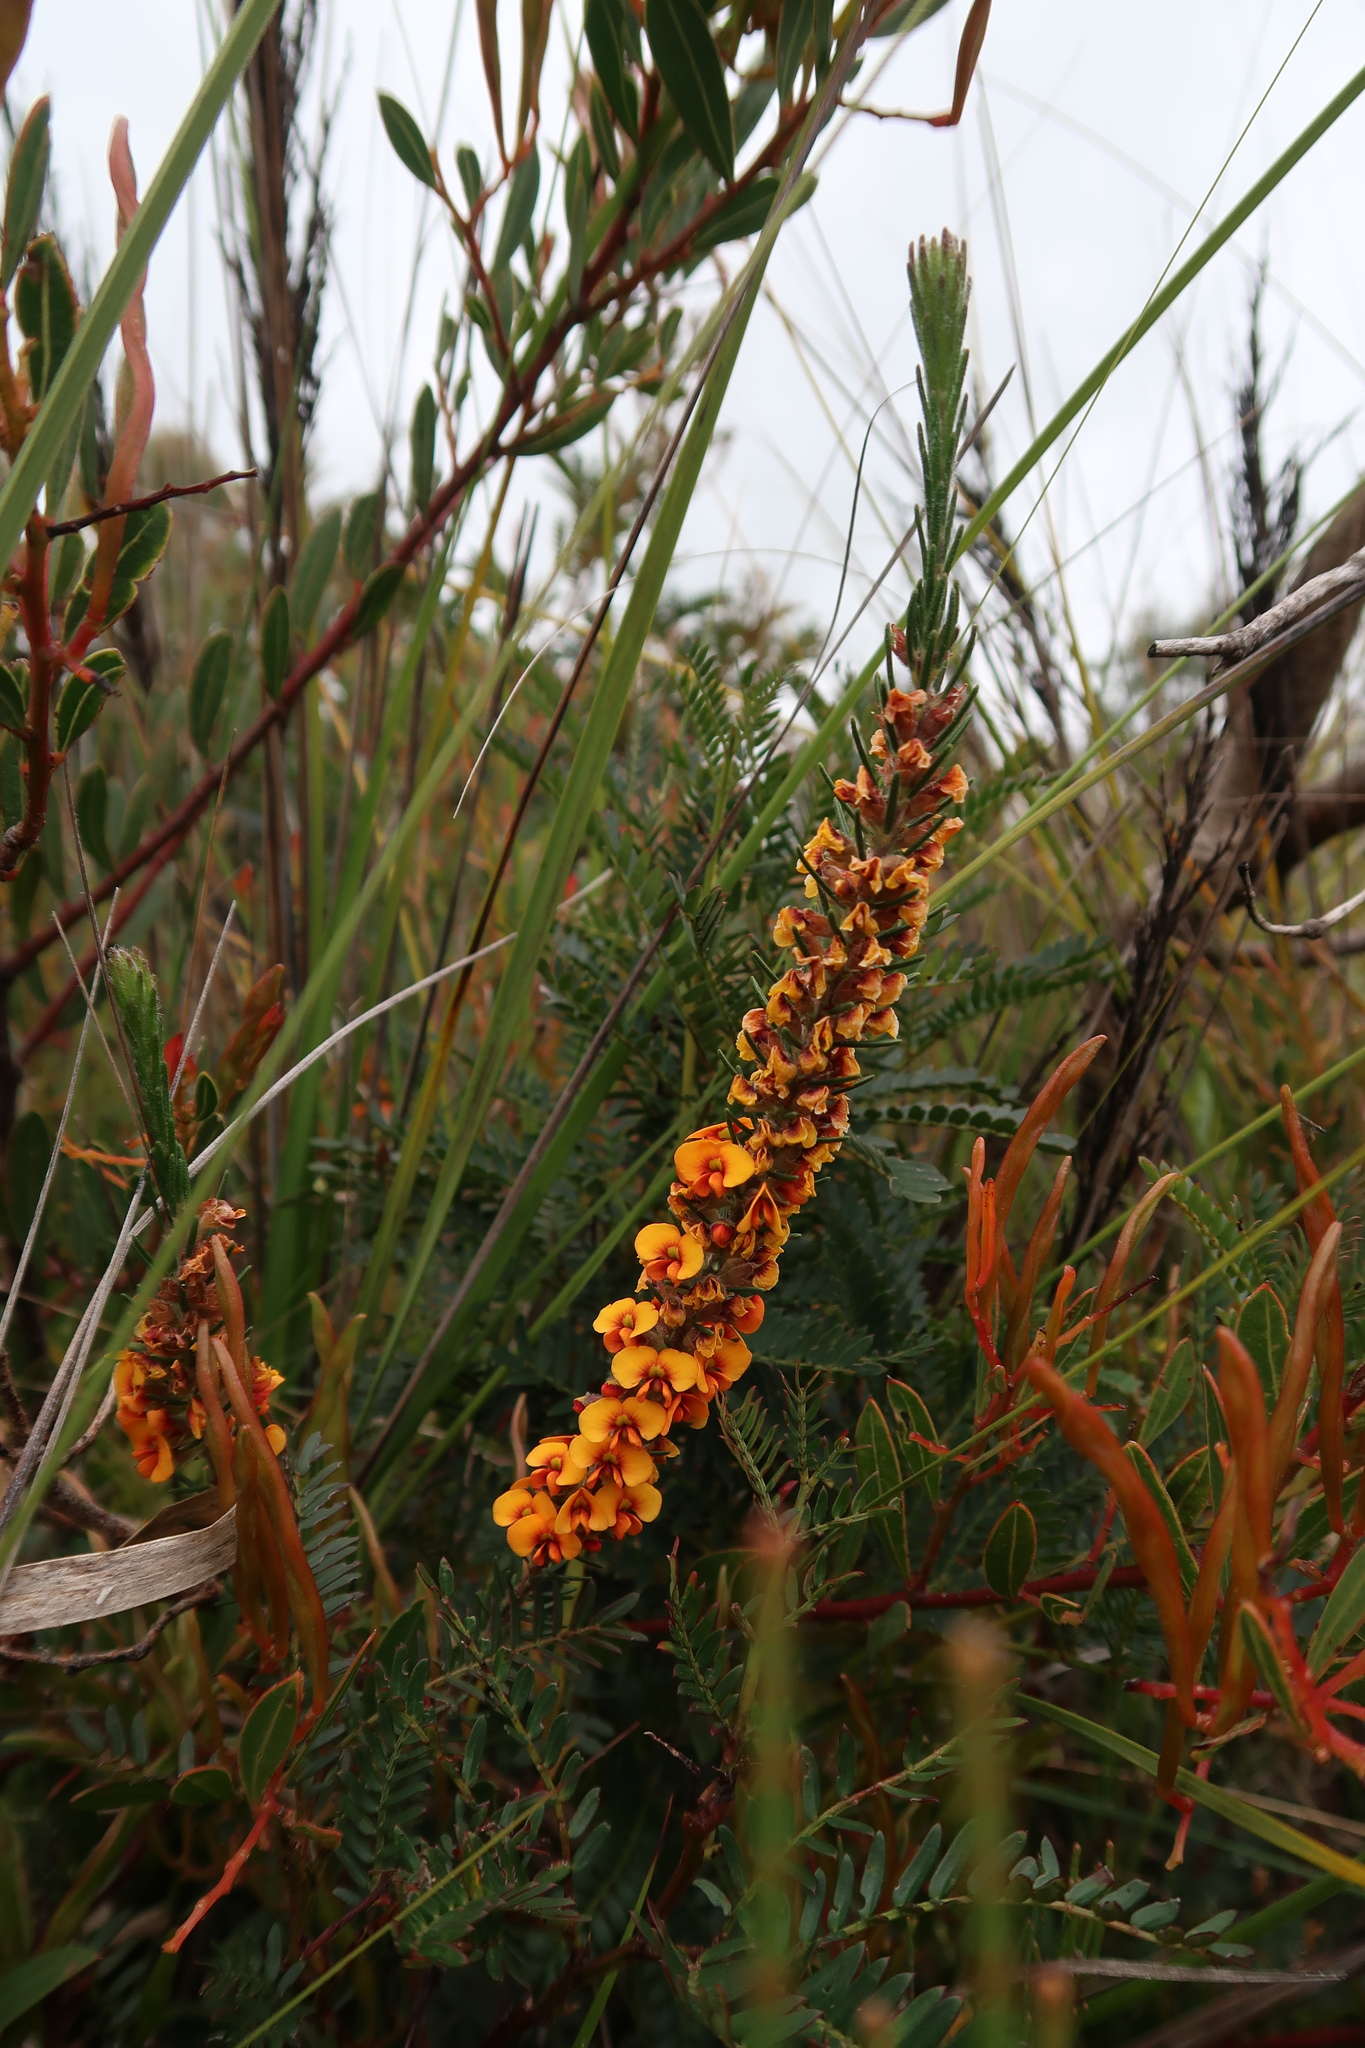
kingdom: Plantae
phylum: Tracheophyta
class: Magnoliopsida
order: Fabales
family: Fabaceae
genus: Dillwynia
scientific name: Dillwynia sericea
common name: Showy parrot-pea
